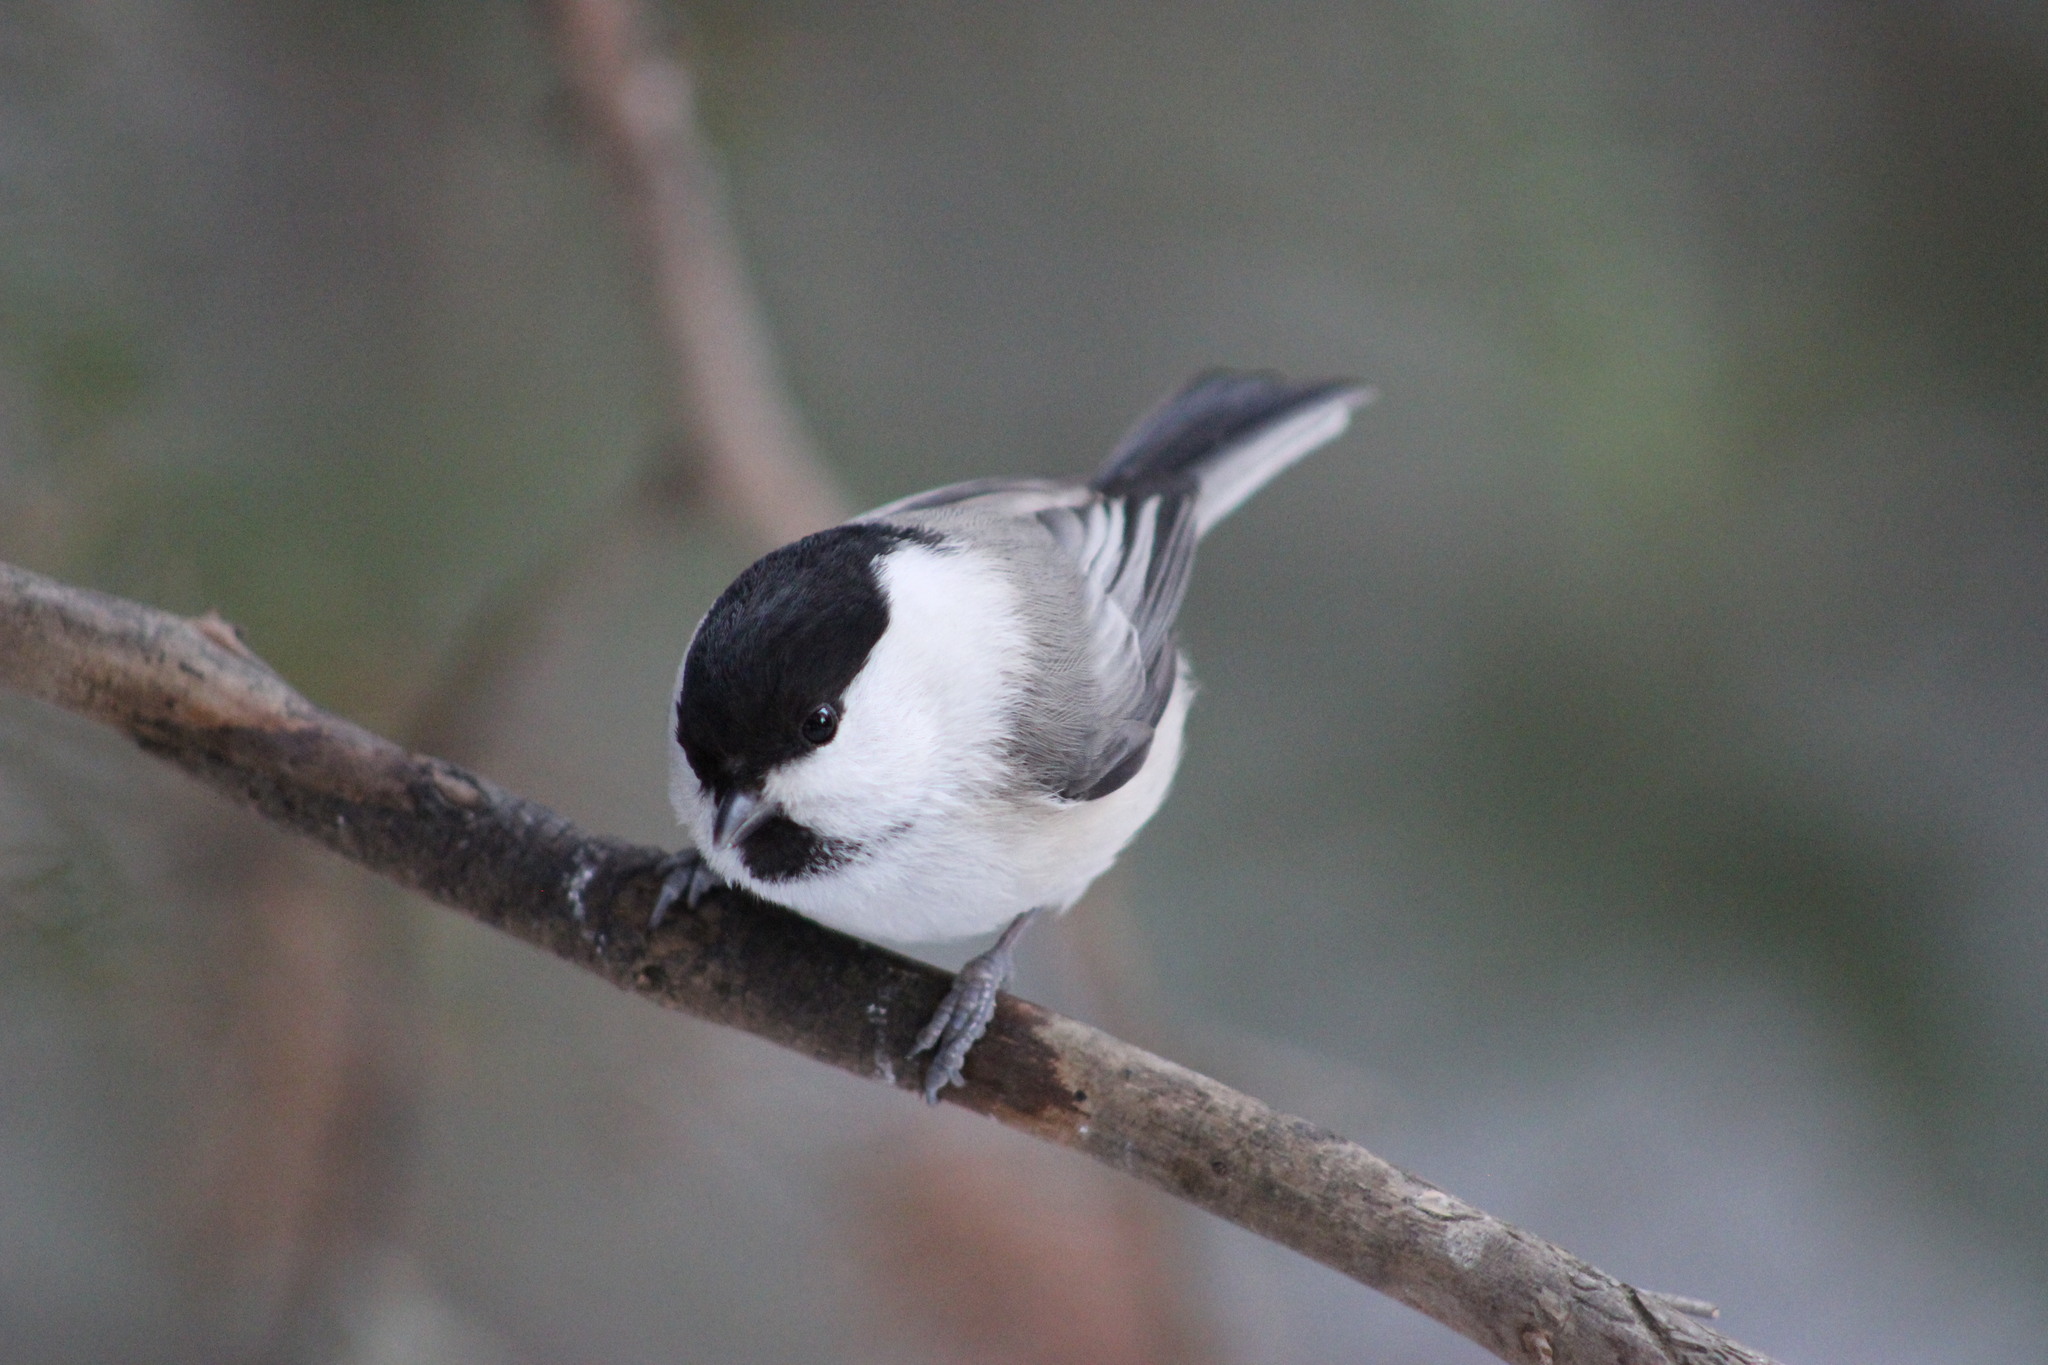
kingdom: Animalia
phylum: Chordata
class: Aves
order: Passeriformes
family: Paridae
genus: Poecile
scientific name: Poecile montanus
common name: Willow tit
